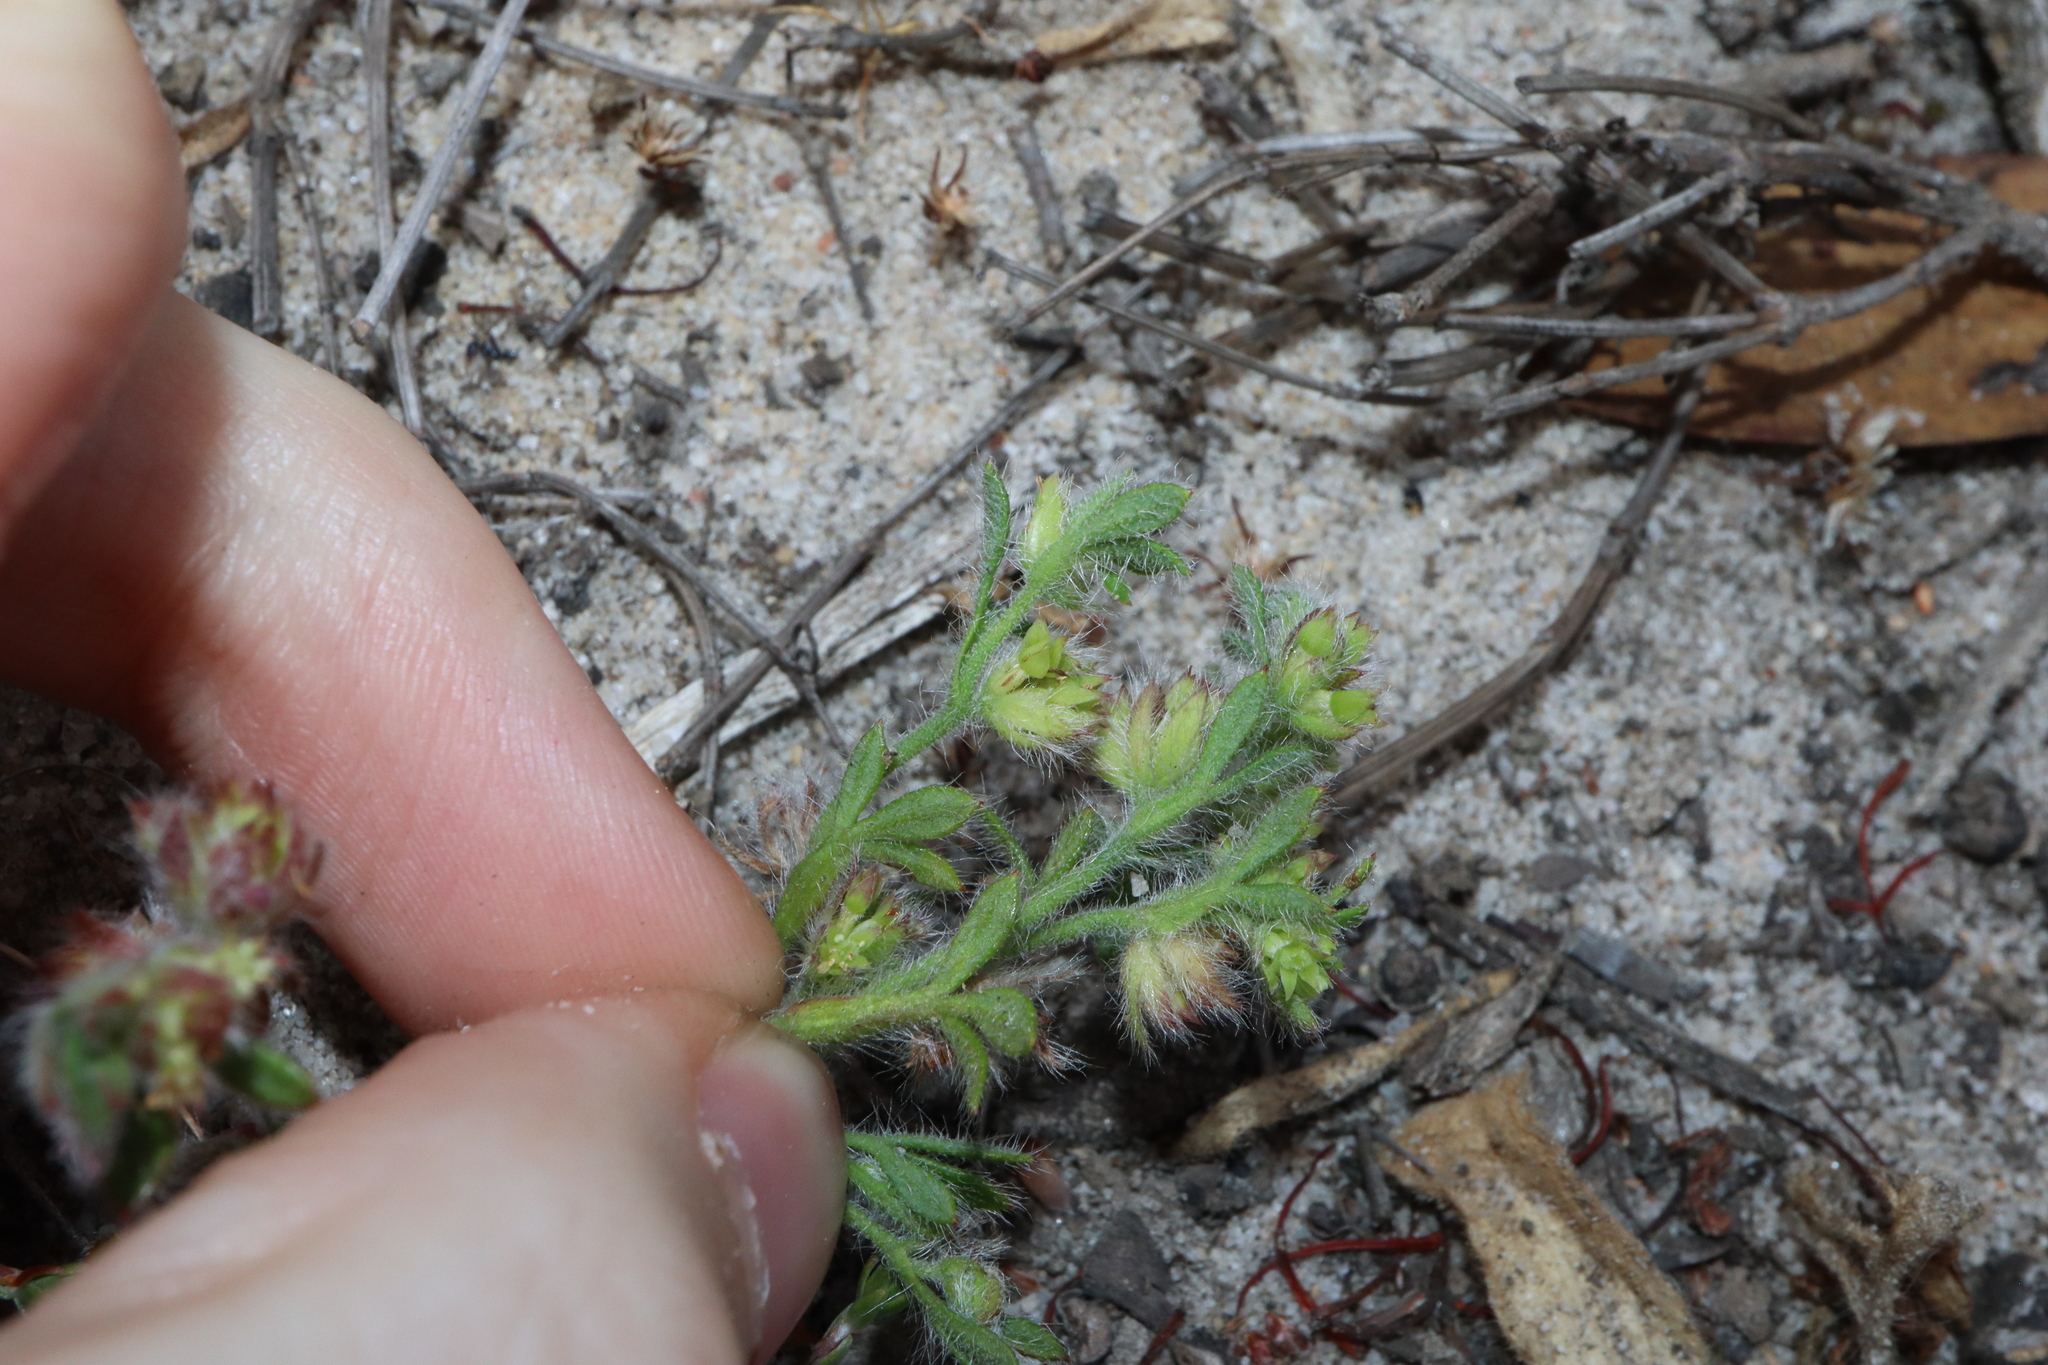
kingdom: Plantae
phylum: Tracheophyta
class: Magnoliopsida
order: Apiales
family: Apiaceae
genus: Xanthosia
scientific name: Xanthosia huegelii
